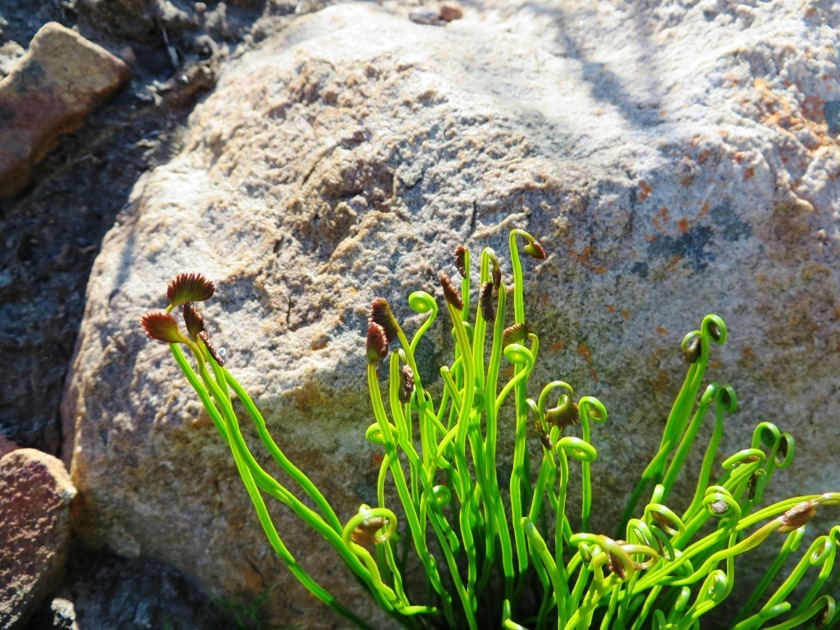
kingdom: Plantae
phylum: Tracheophyta
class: Polypodiopsida
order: Schizaeales
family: Schizaeaceae
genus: Schizaea
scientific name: Schizaea pectinata
